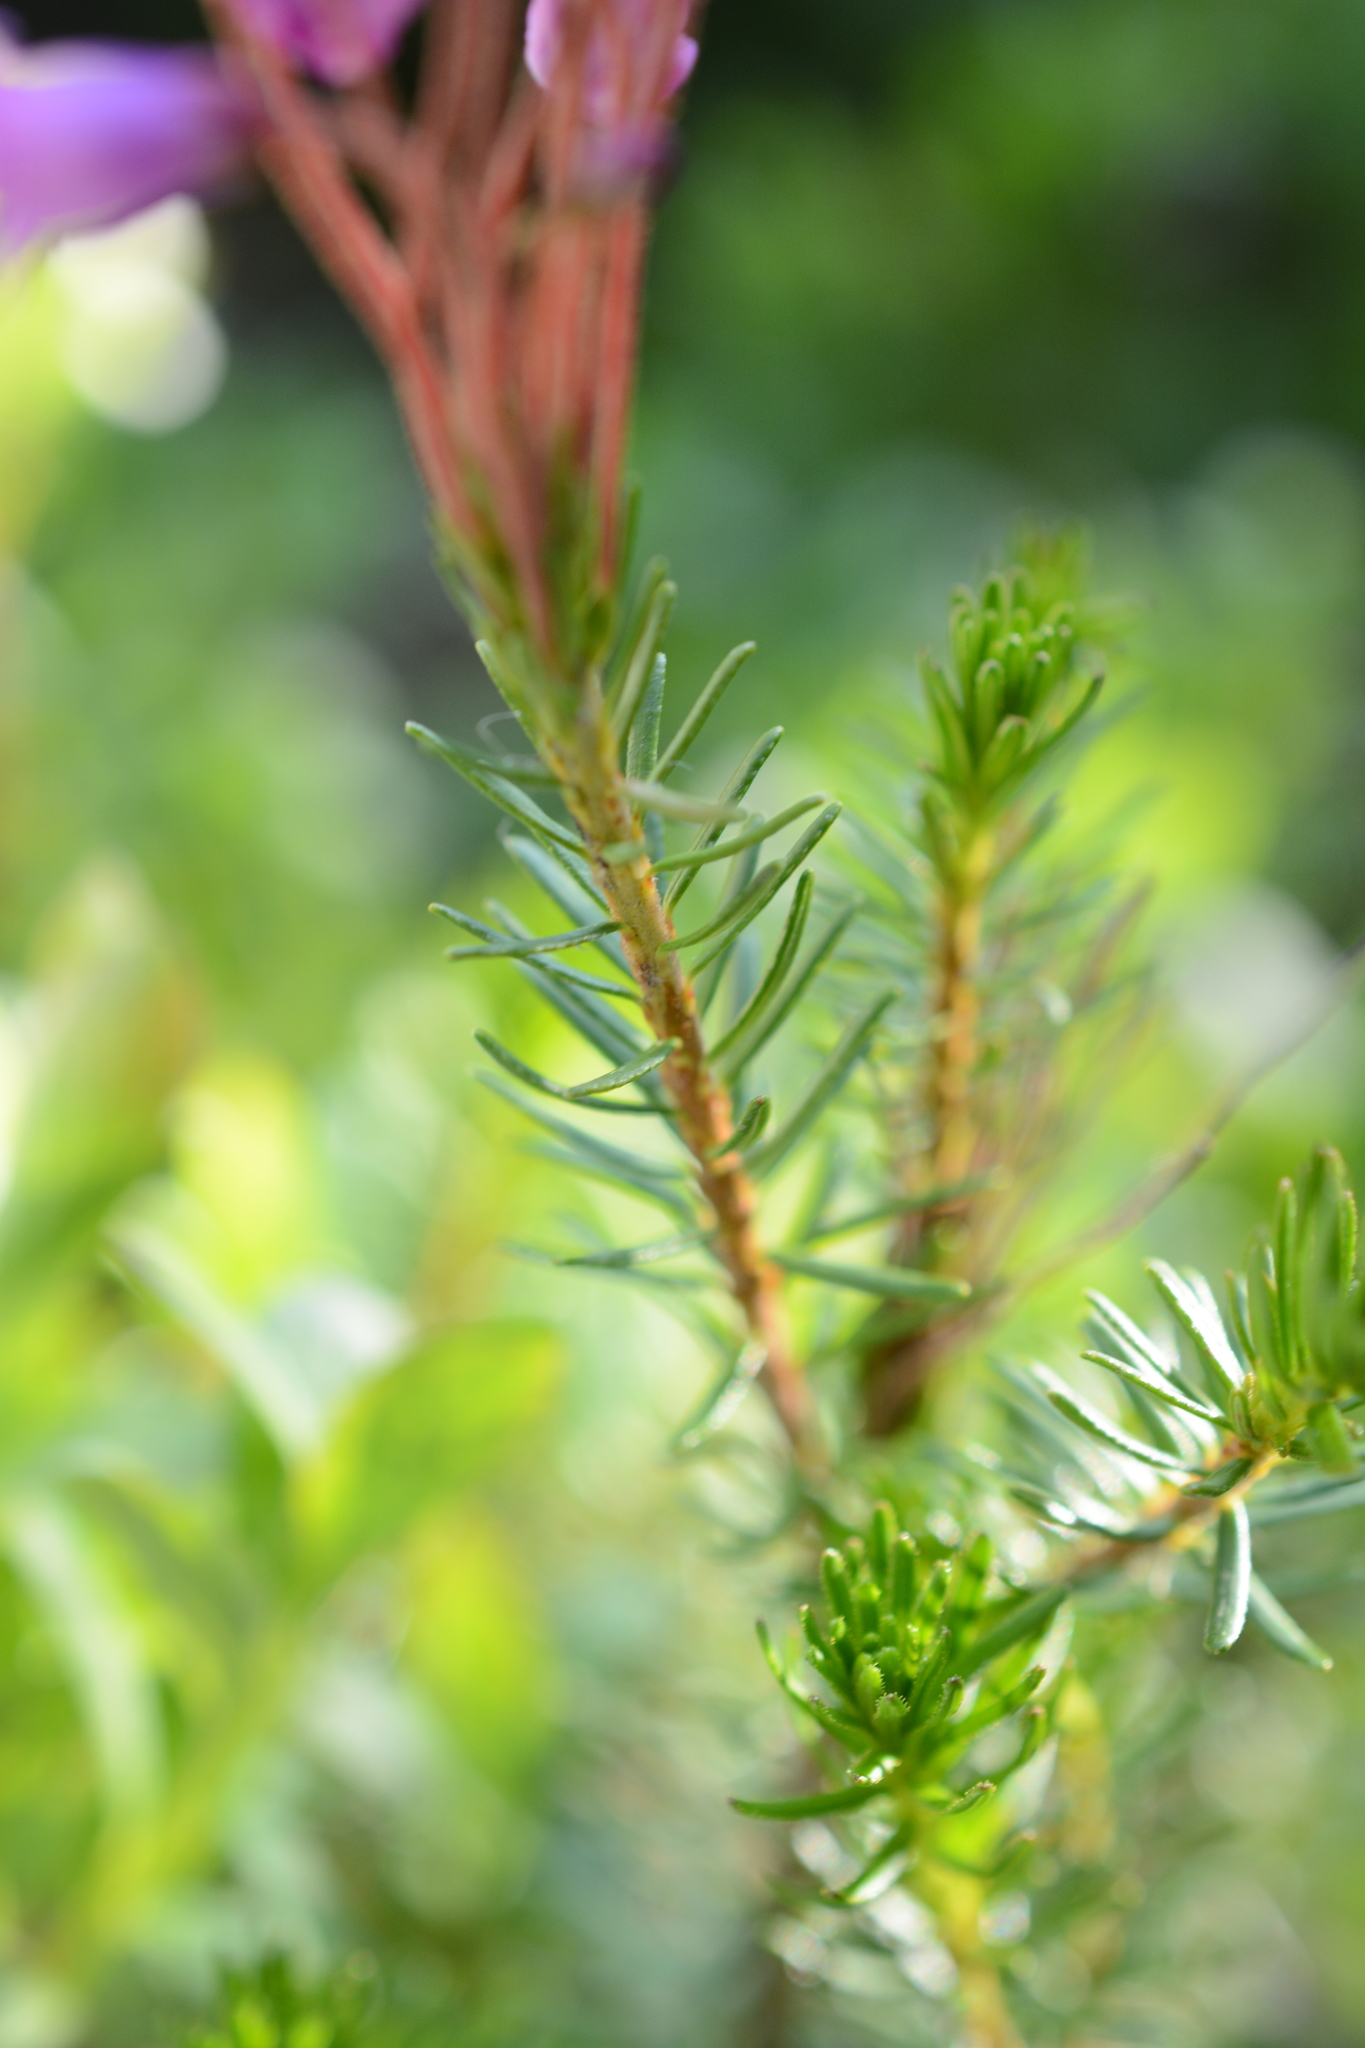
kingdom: Plantae
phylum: Tracheophyta
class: Magnoliopsida
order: Ericales
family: Ericaceae
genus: Phyllodoce
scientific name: Phyllodoce empetriformis
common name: Pink mountain heather
